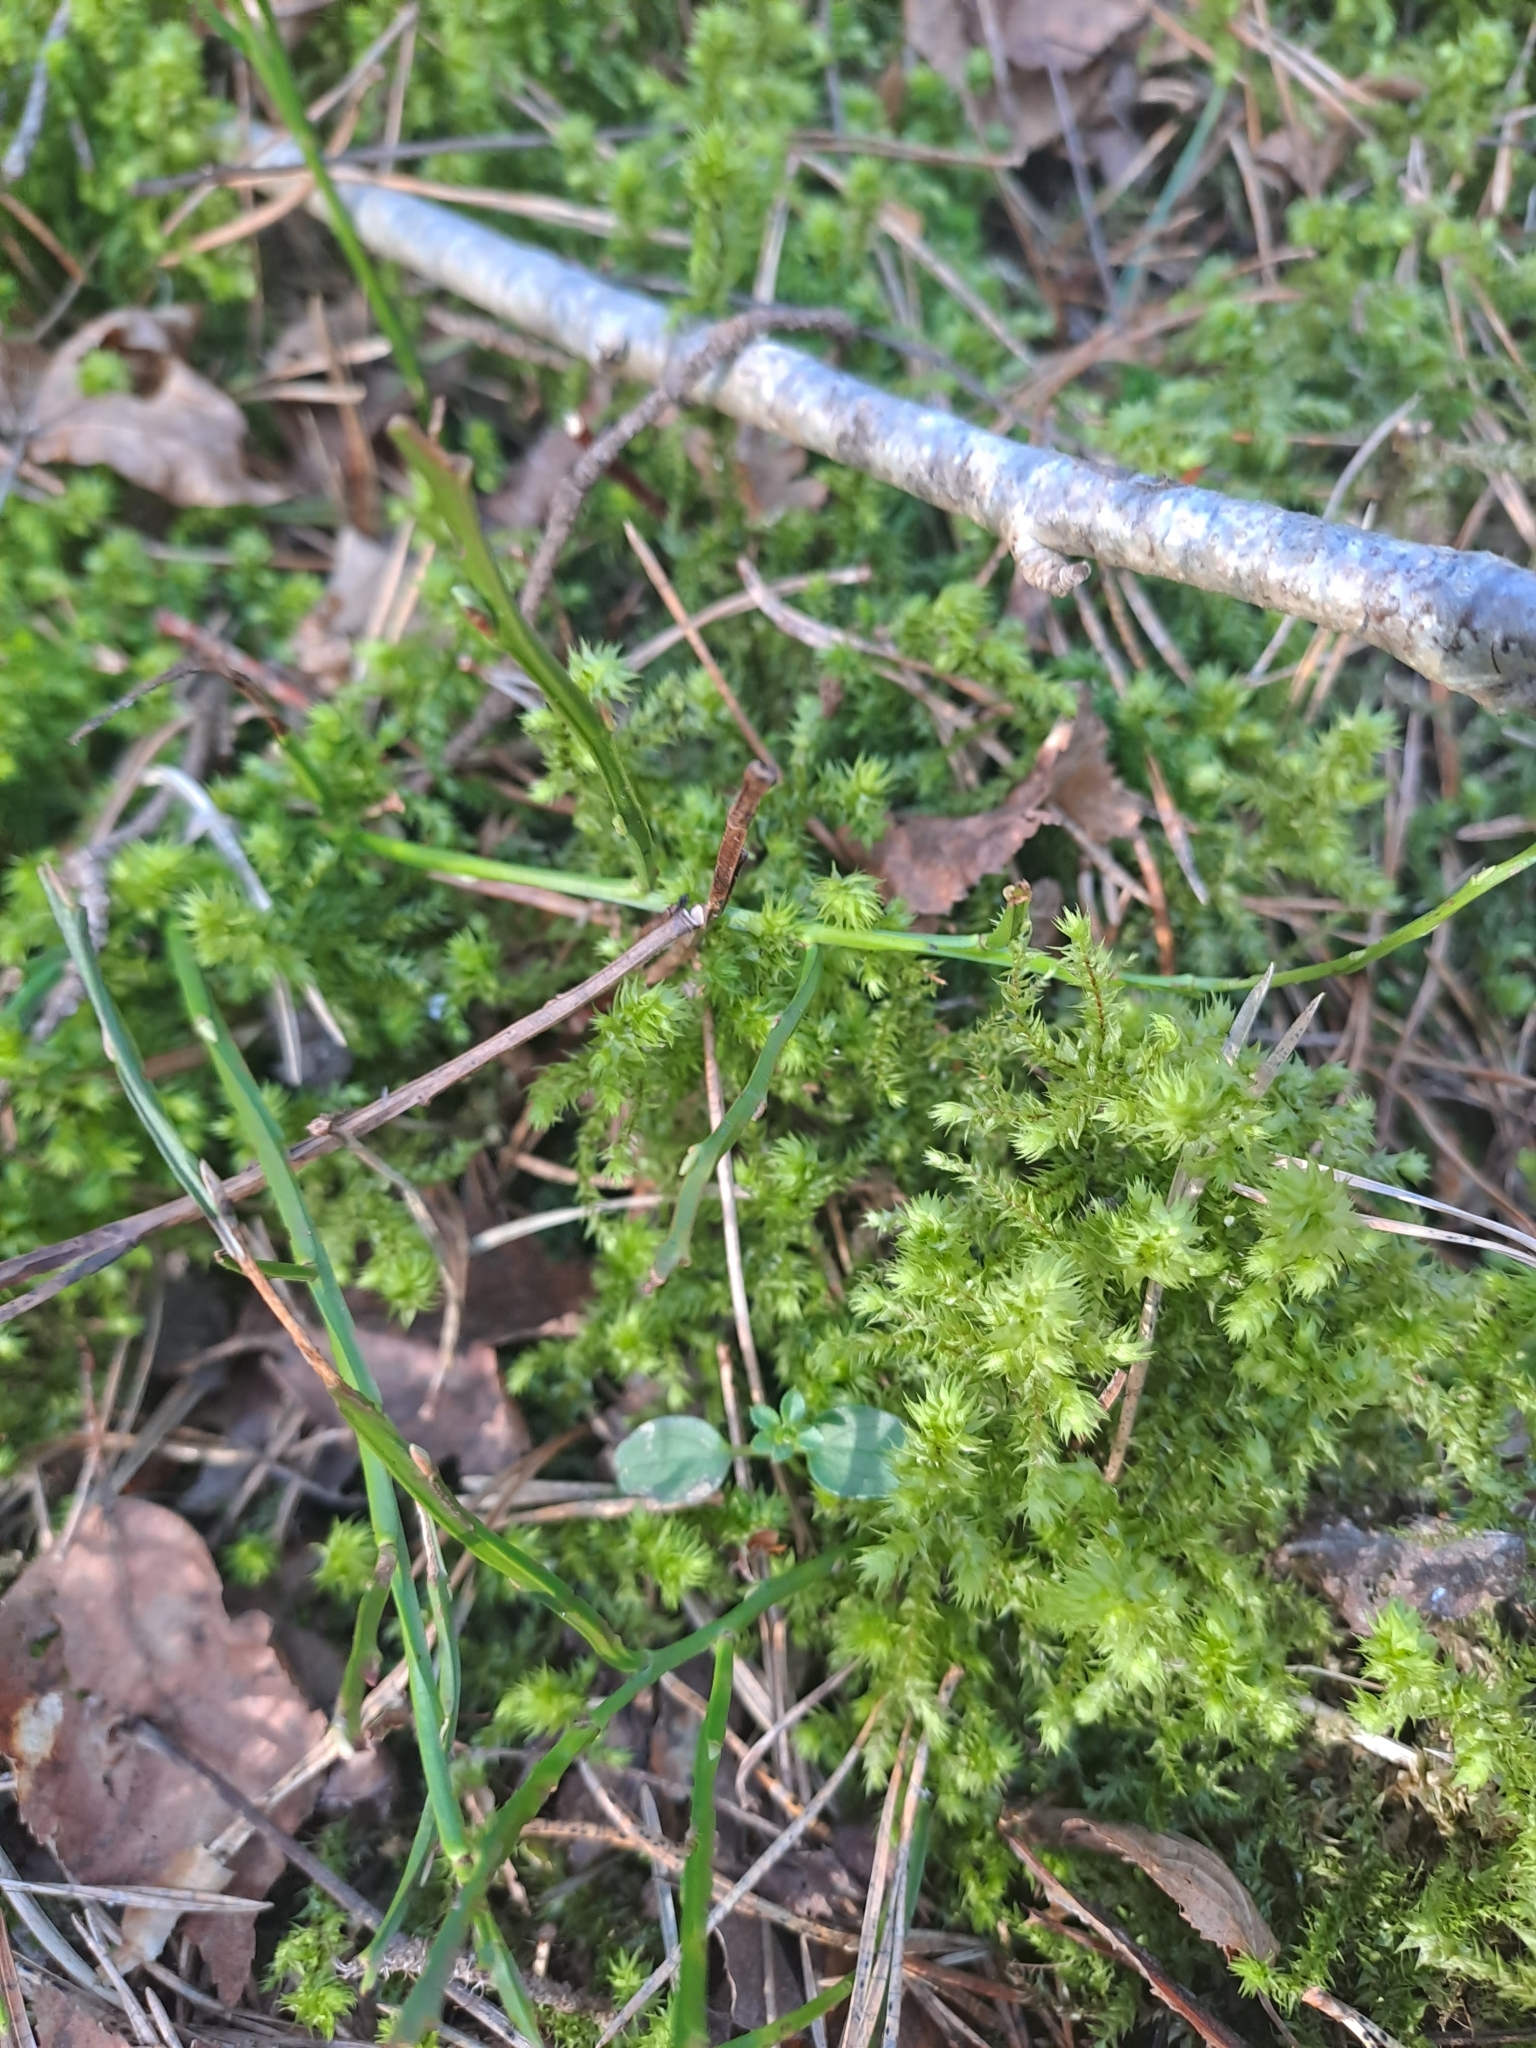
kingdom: Plantae
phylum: Bryophyta
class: Bryopsida
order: Hypnales
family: Hylocomiaceae
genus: Hylocomiadelphus
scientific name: Hylocomiadelphus triquetrus
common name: Rough goose neck moss
